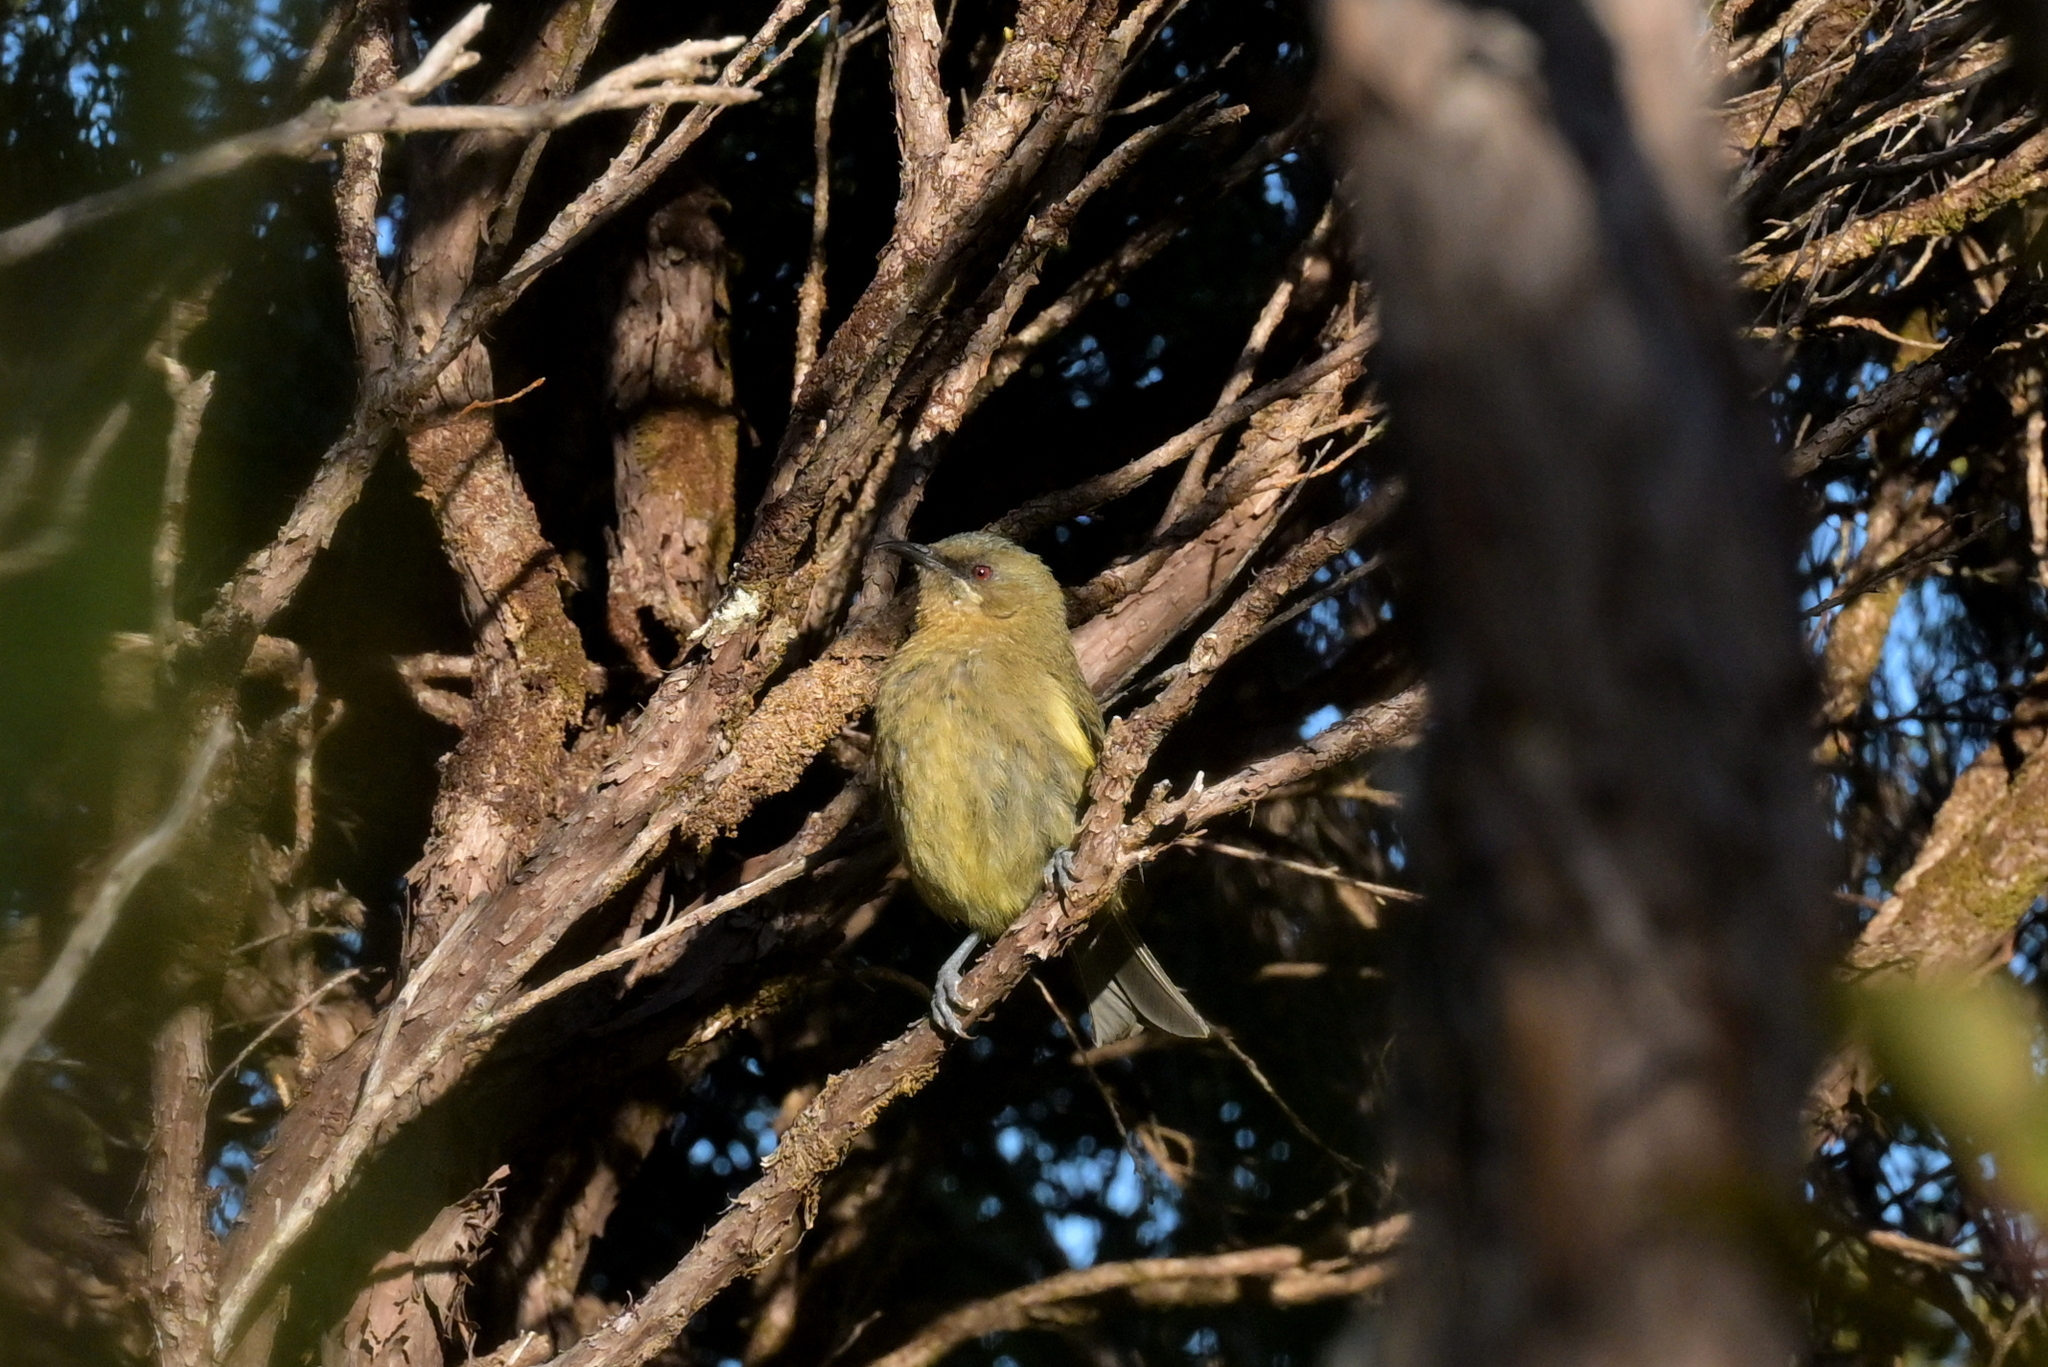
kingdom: Animalia
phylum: Chordata
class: Aves
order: Passeriformes
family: Meliphagidae
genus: Anthornis
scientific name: Anthornis melanura
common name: New zealand bellbird
